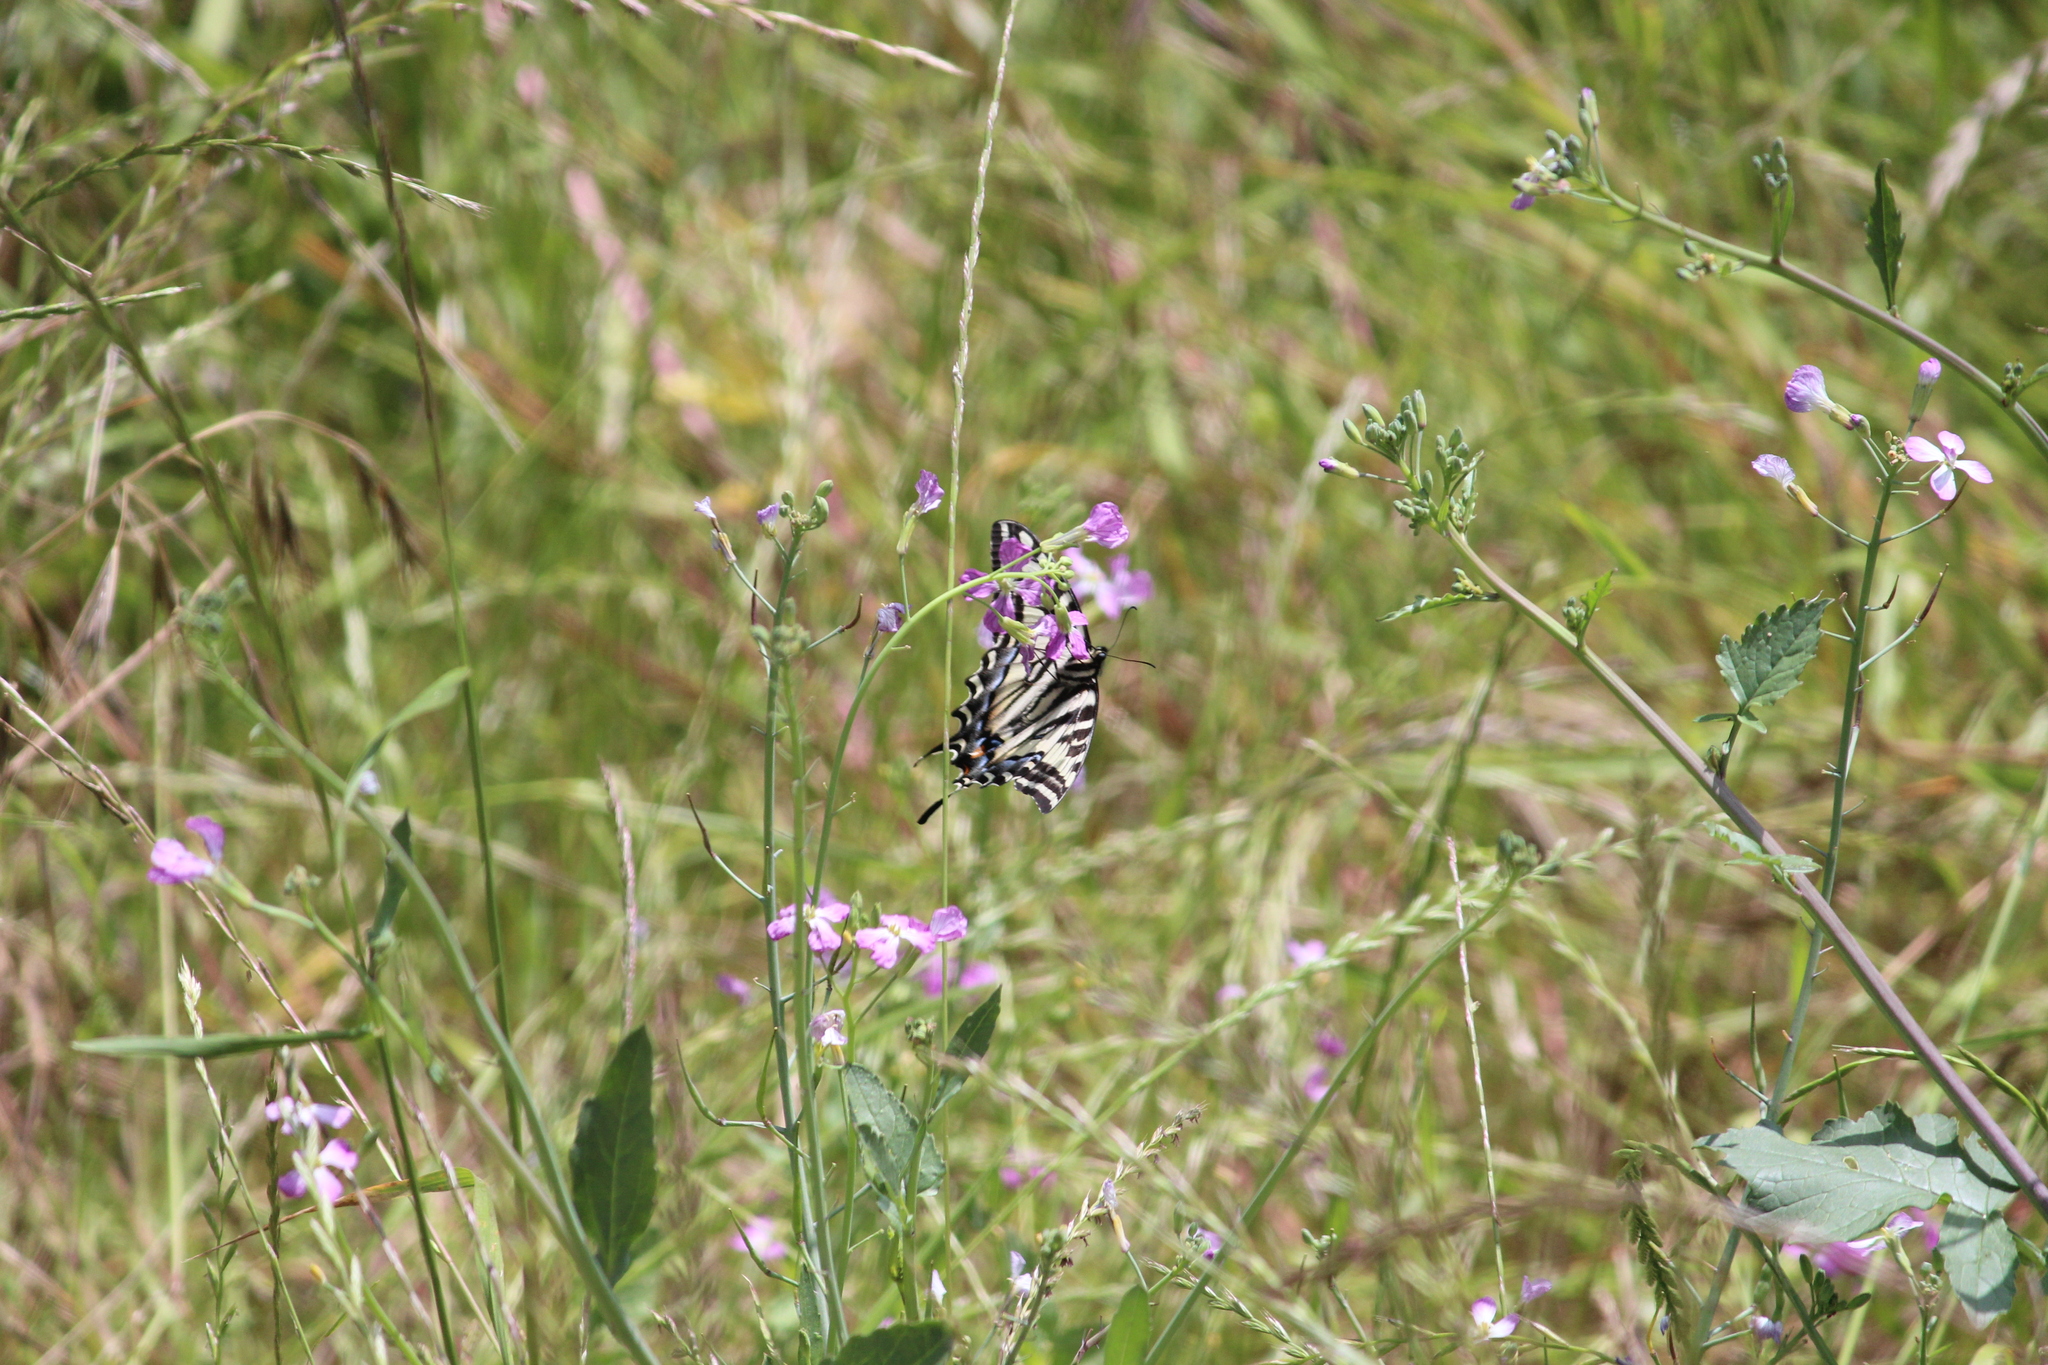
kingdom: Animalia
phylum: Arthropoda
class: Insecta
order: Lepidoptera
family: Papilionidae
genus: Papilio
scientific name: Papilio eurymedon
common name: Pale tiger swallowtail
